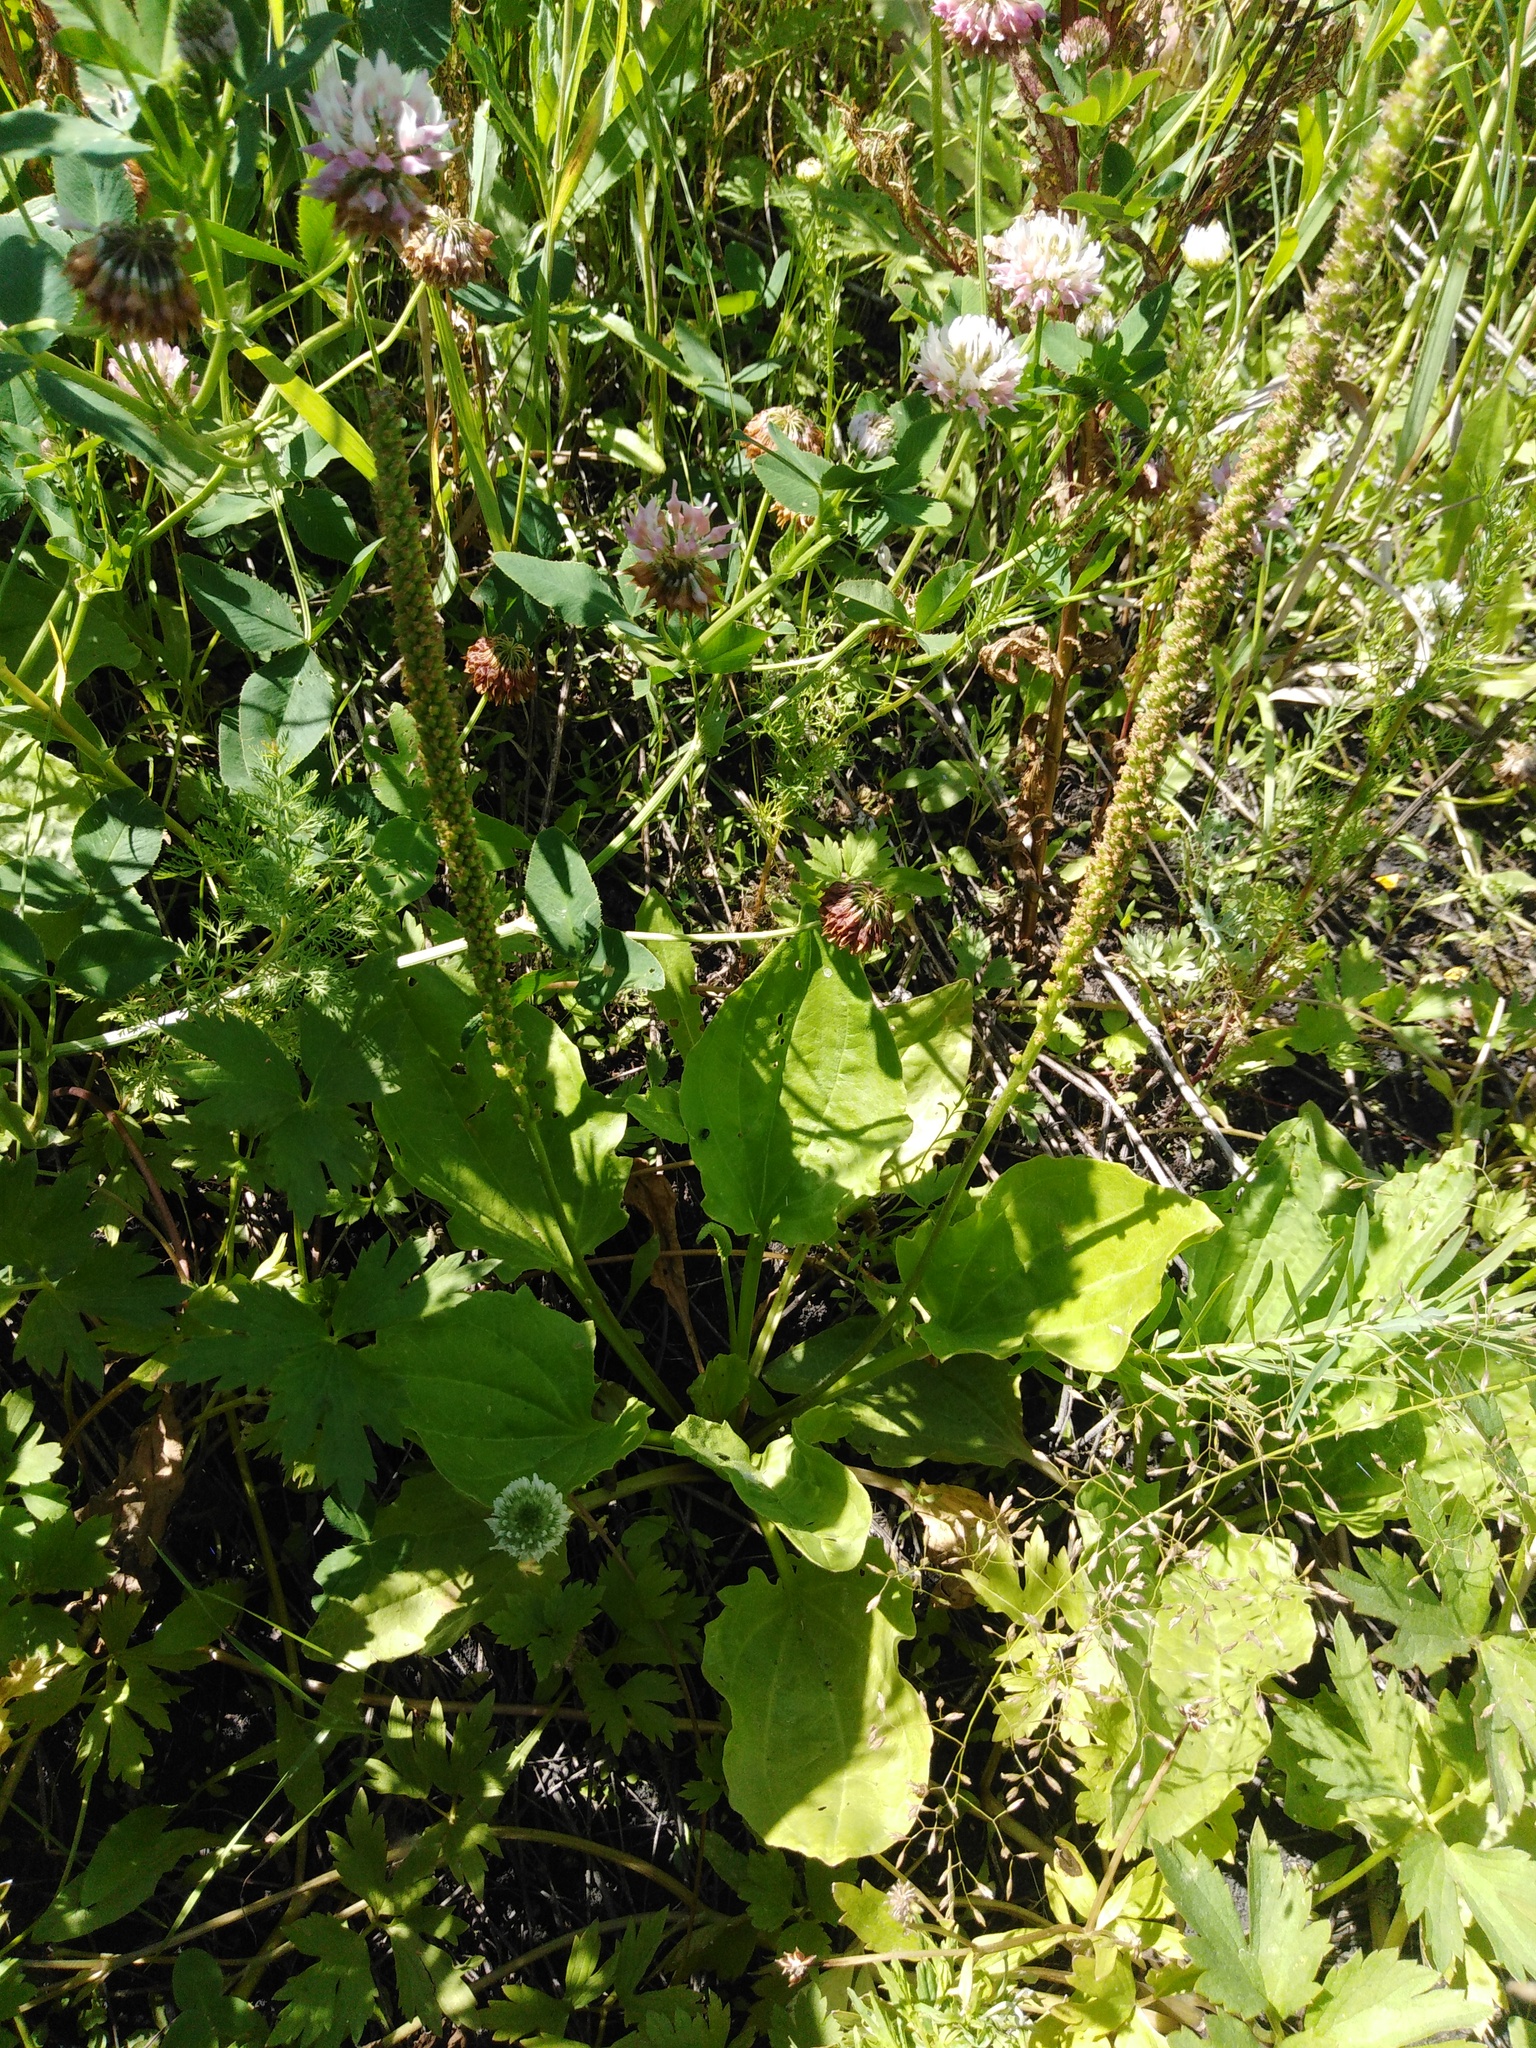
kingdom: Plantae
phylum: Tracheophyta
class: Magnoliopsida
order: Lamiales
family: Plantaginaceae
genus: Plantago
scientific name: Plantago major
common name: Common plantain
